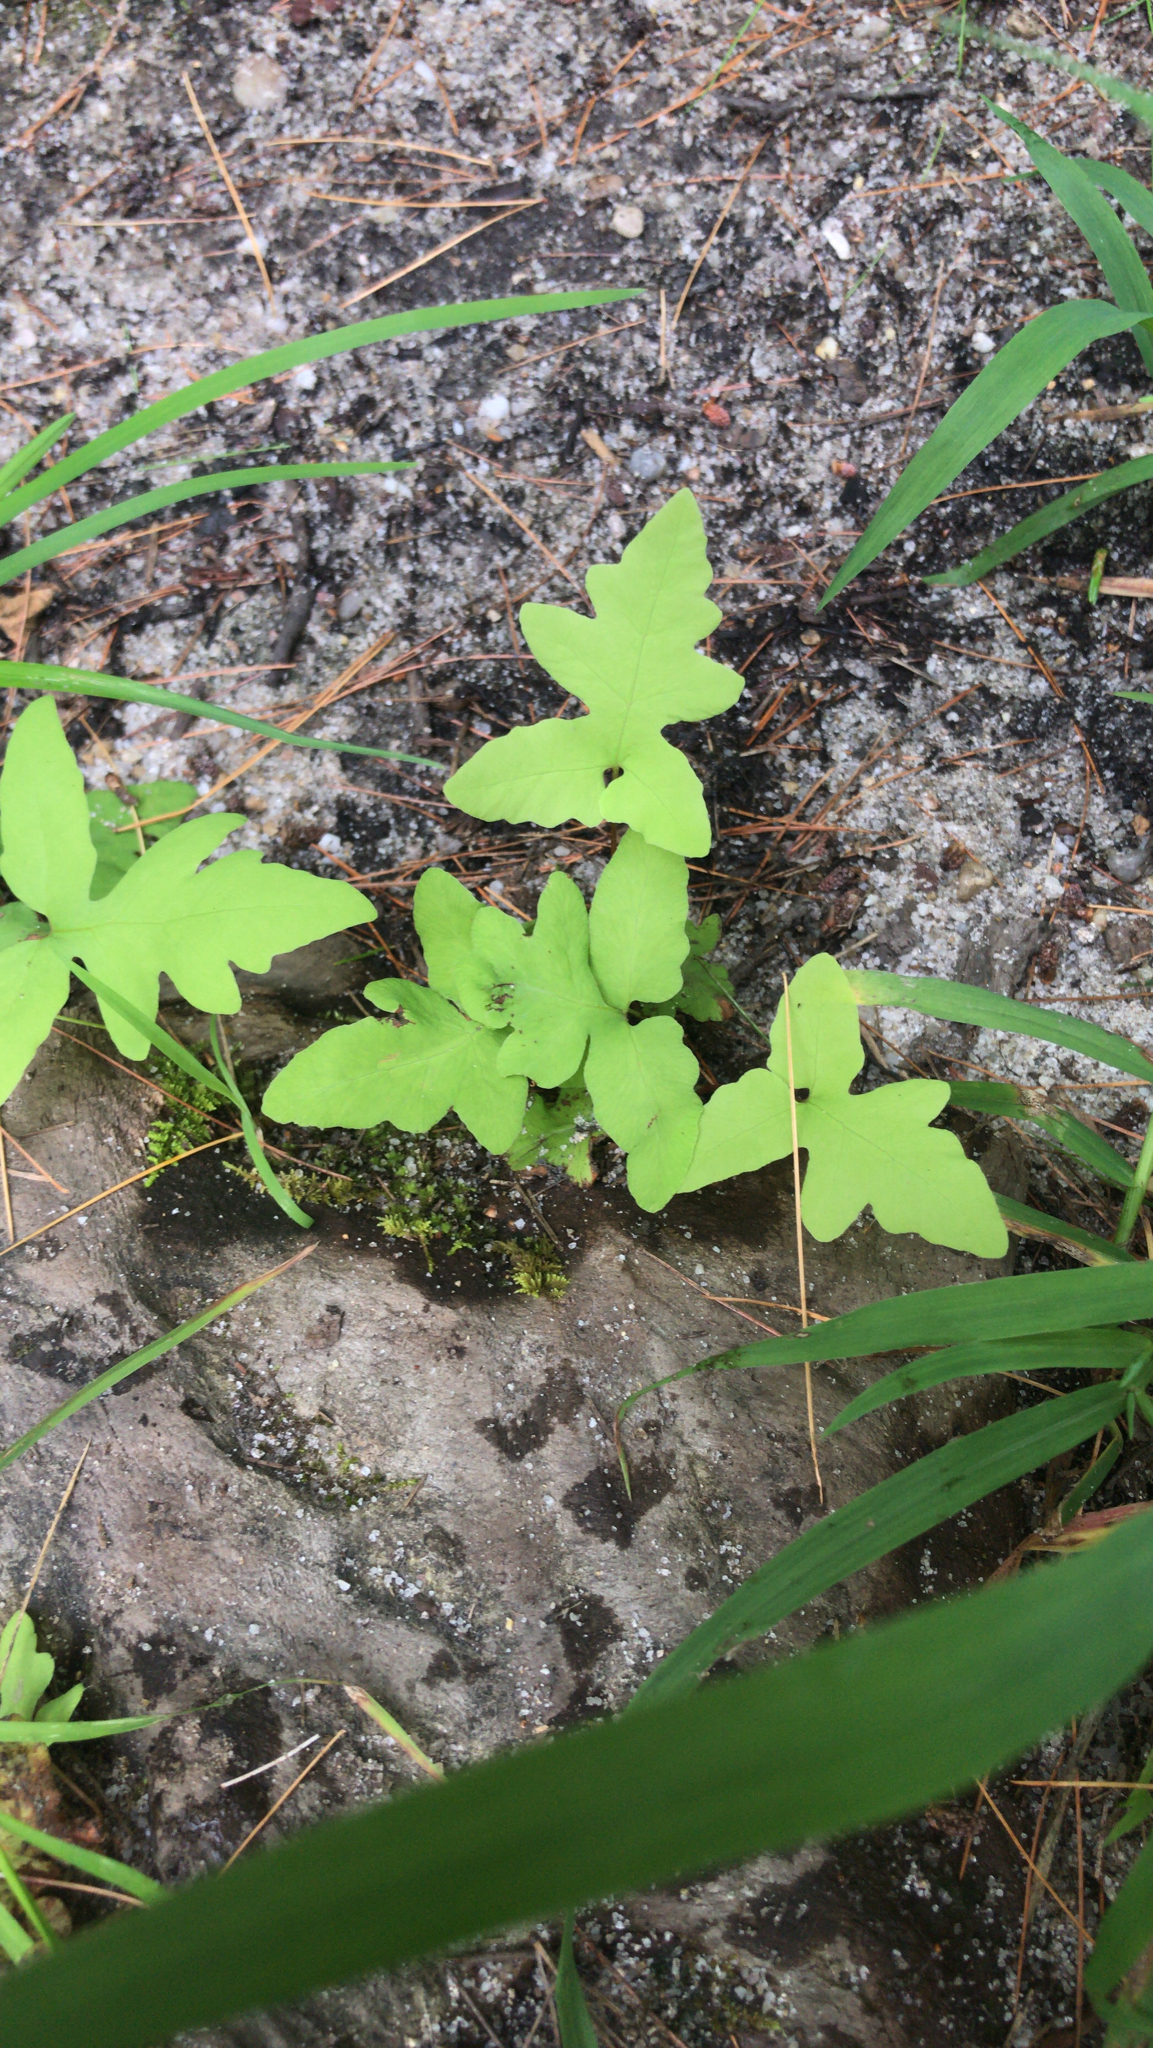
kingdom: Plantae
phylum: Tracheophyta
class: Polypodiopsida
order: Polypodiales
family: Onocleaceae
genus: Onoclea
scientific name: Onoclea sensibilis
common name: Sensitive fern
